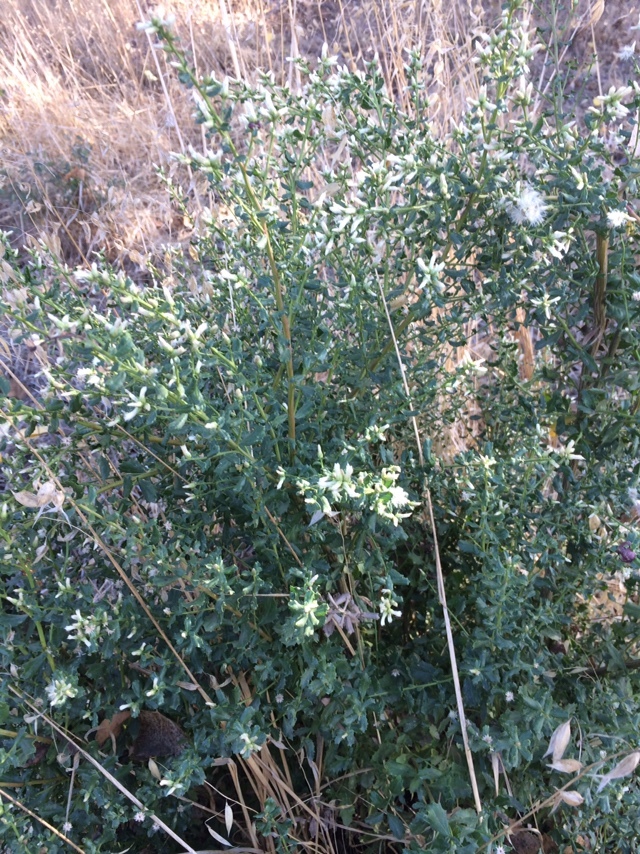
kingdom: Plantae
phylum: Tracheophyta
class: Magnoliopsida
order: Asterales
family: Asteraceae
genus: Baccharis
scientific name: Baccharis pilularis
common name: Coyotebrush
